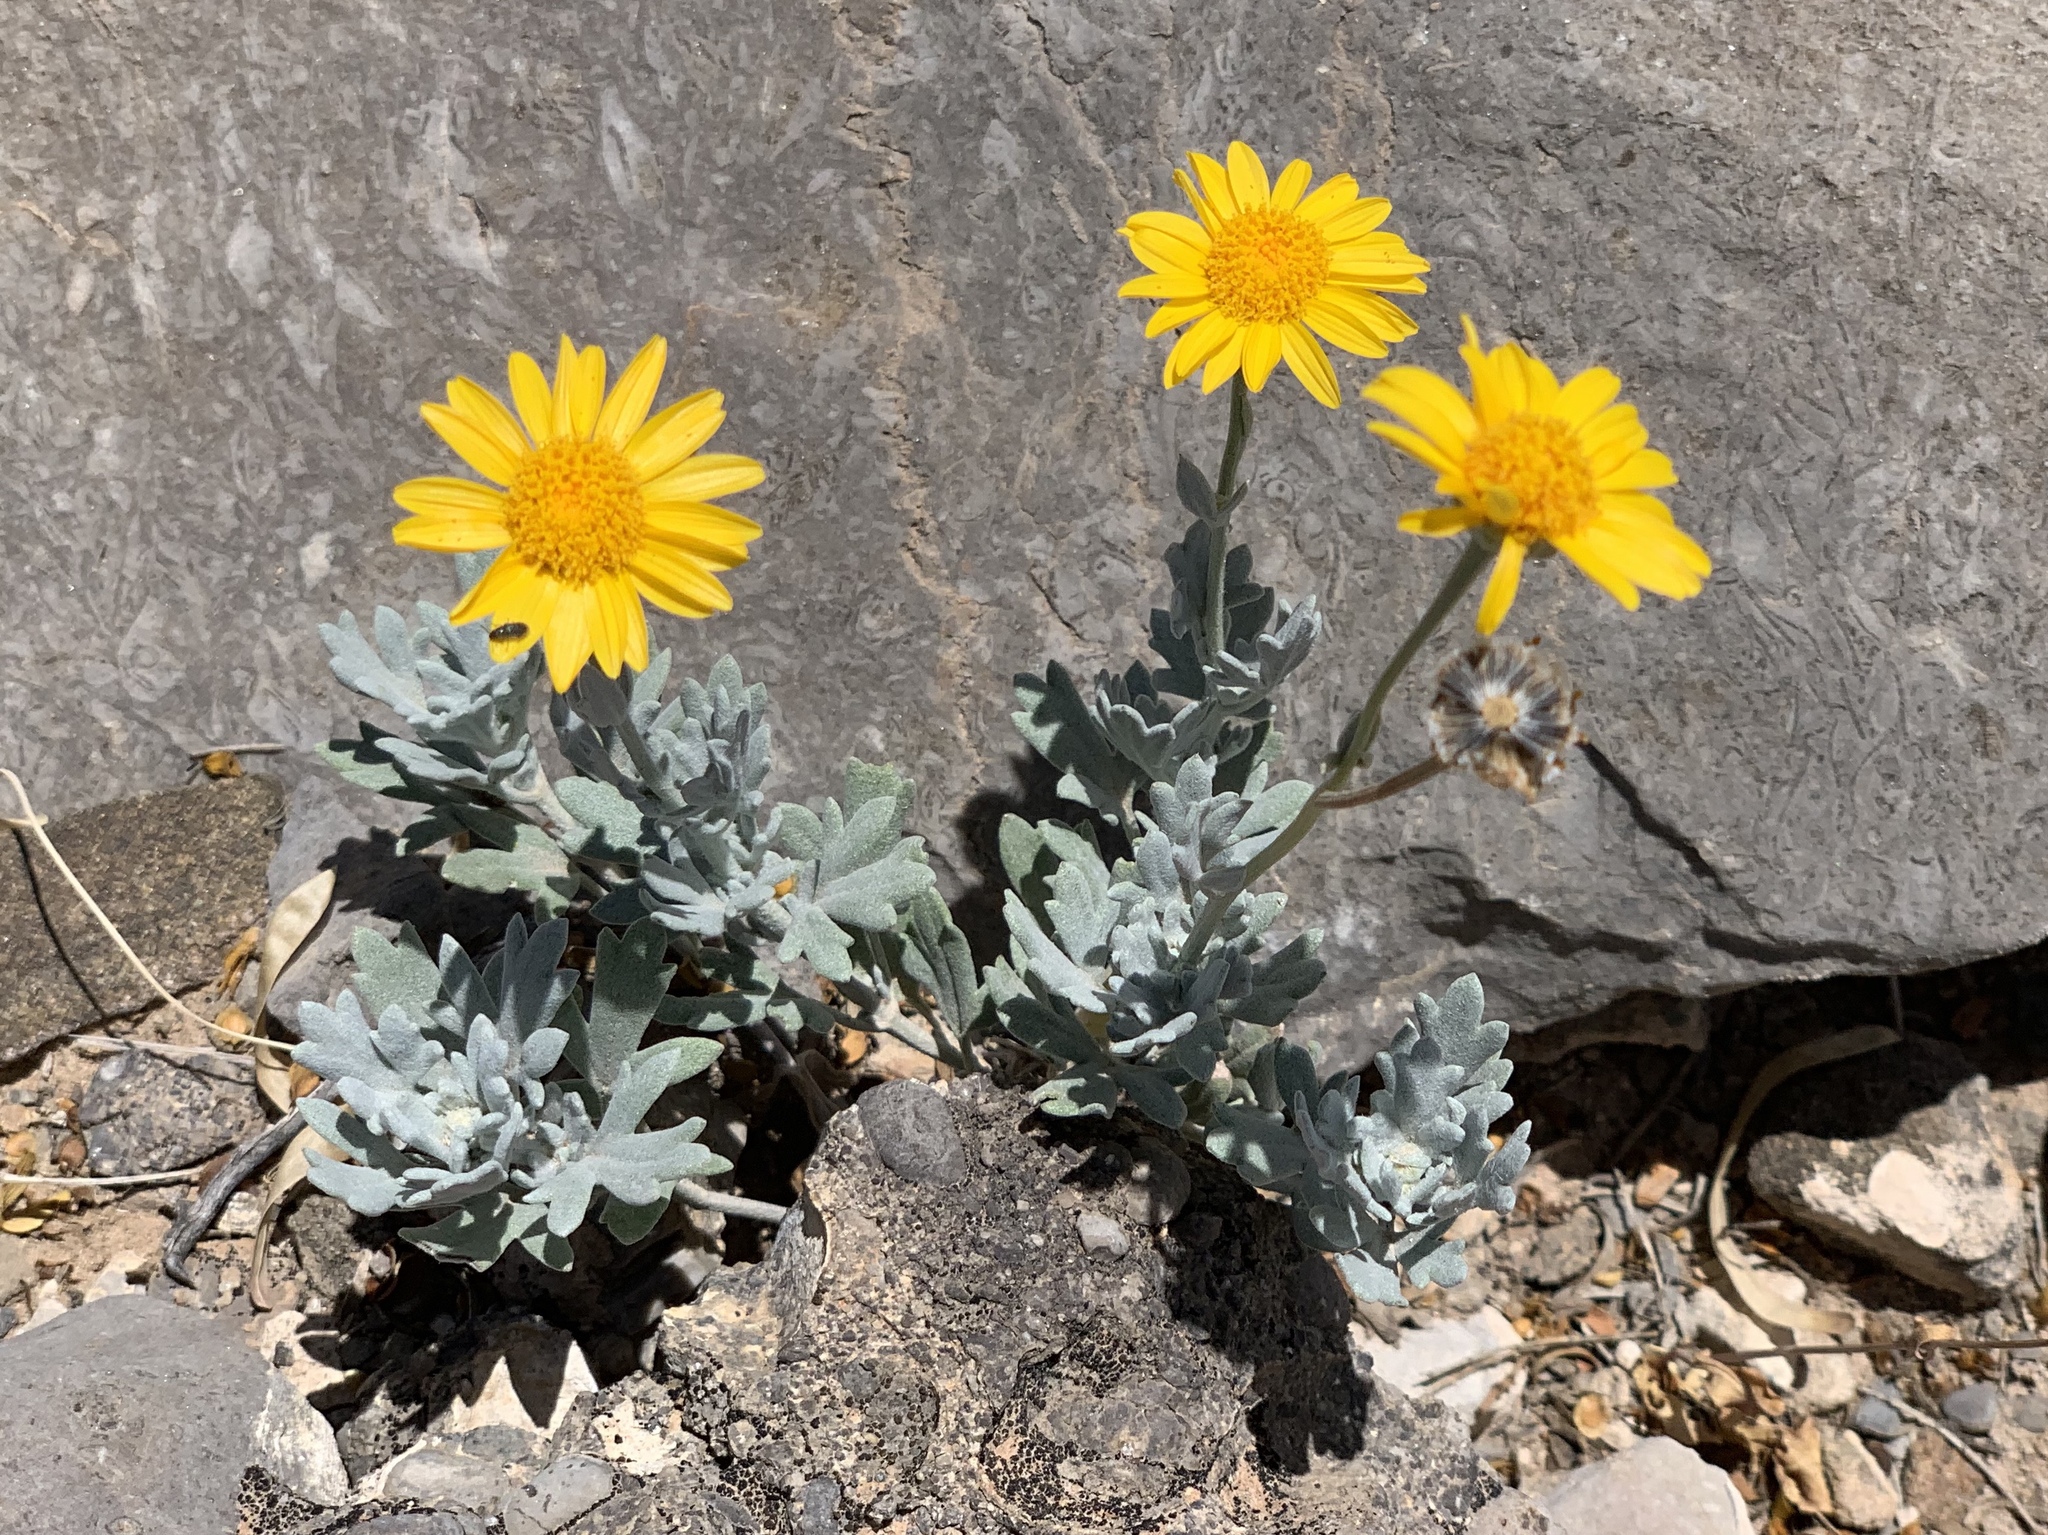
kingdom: Plantae
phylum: Tracheophyta
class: Magnoliopsida
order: Asterales
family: Asteraceae
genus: Picradeniopsis
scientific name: Picradeniopsis absinthifolia
